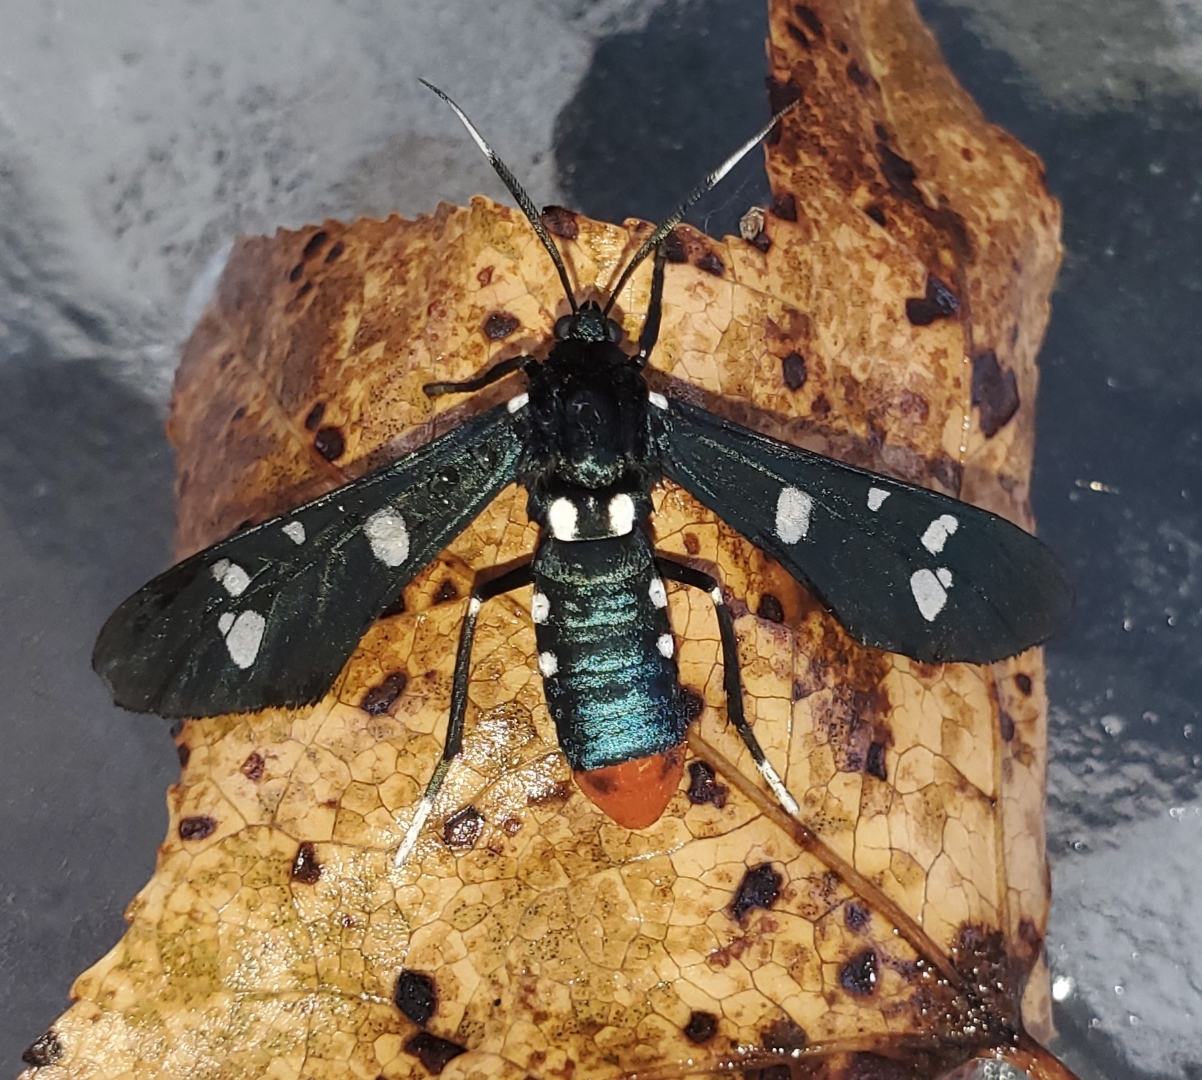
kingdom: Animalia
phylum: Arthropoda
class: Insecta
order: Lepidoptera
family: Erebidae
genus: Syntomeida
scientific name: Syntomeida epilais
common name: Polka-dot wasp moth
